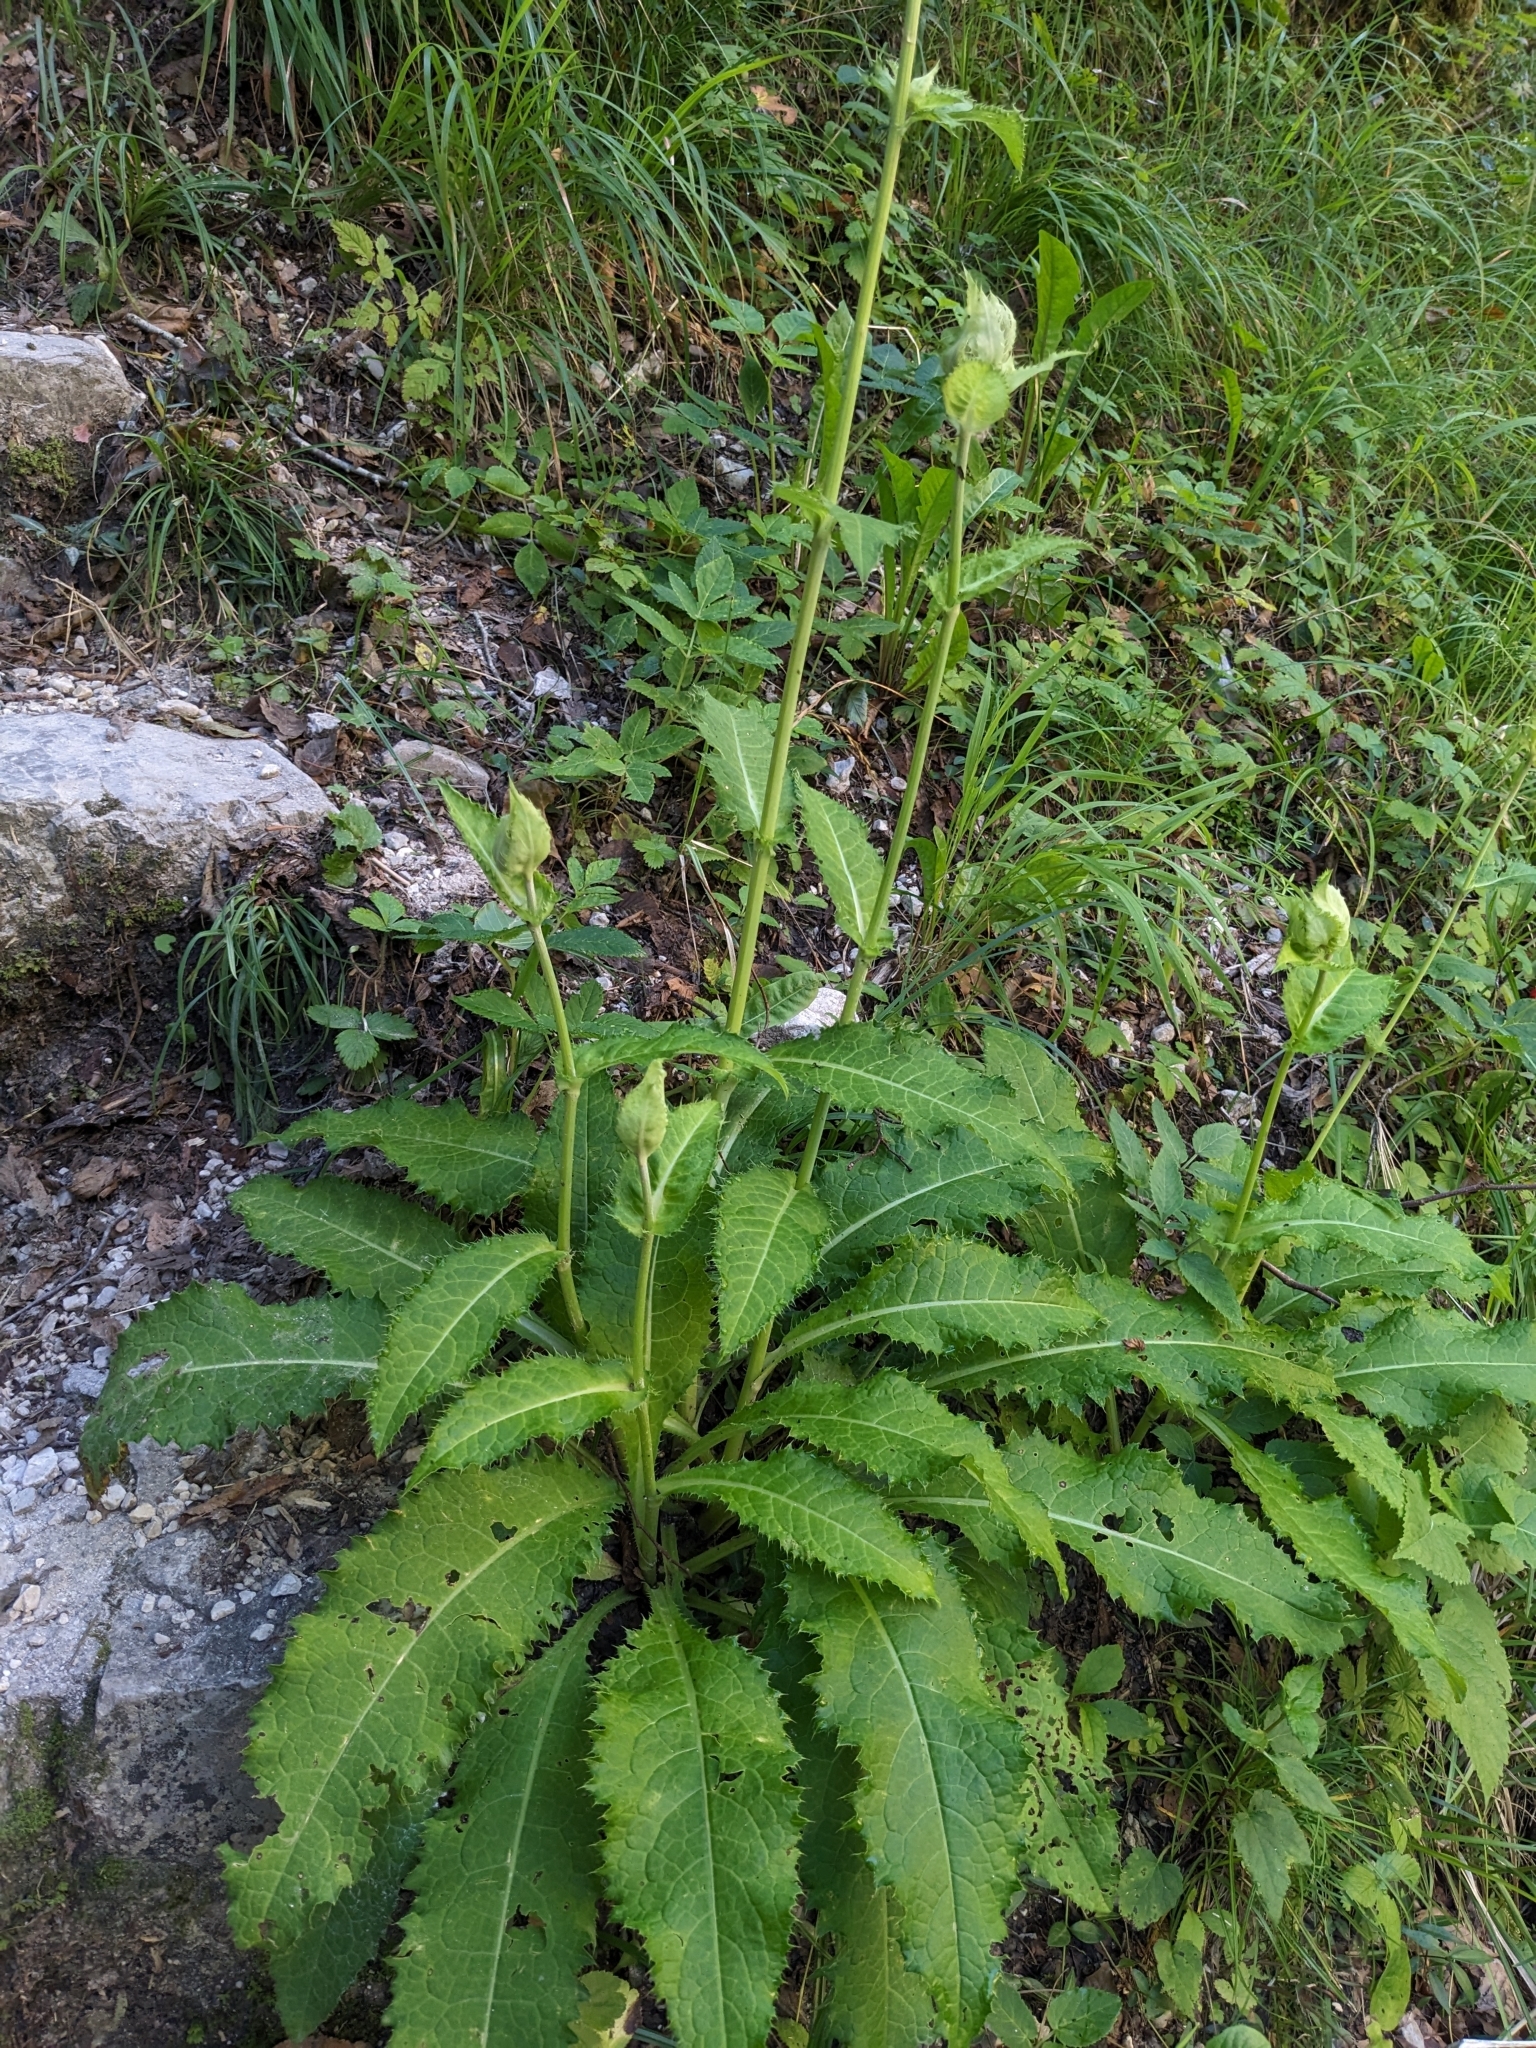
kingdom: Plantae
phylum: Tracheophyta
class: Magnoliopsida
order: Asterales
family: Asteraceae
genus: Cirsium
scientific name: Cirsium oleraceum
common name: Cabbage thistle
